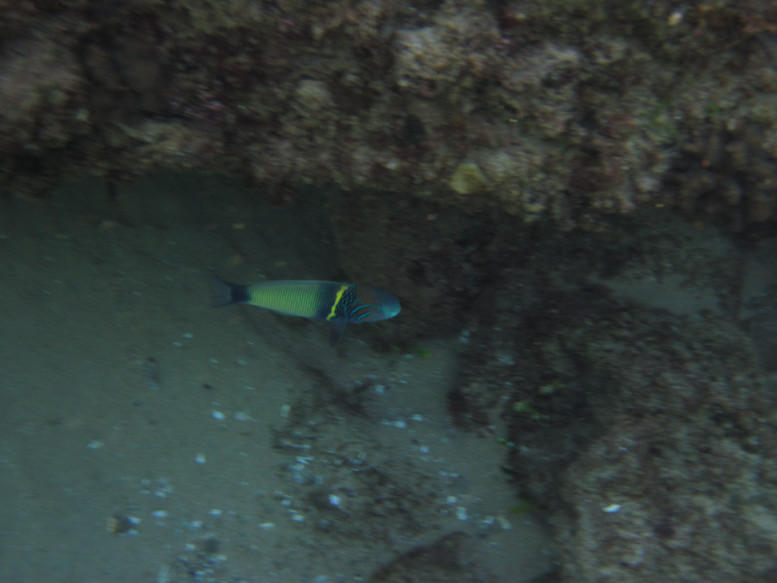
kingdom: Animalia
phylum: Chordata
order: Perciformes
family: Labridae
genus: Thalassoma
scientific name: Thalassoma hebraicum
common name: Goldbar wrasse
